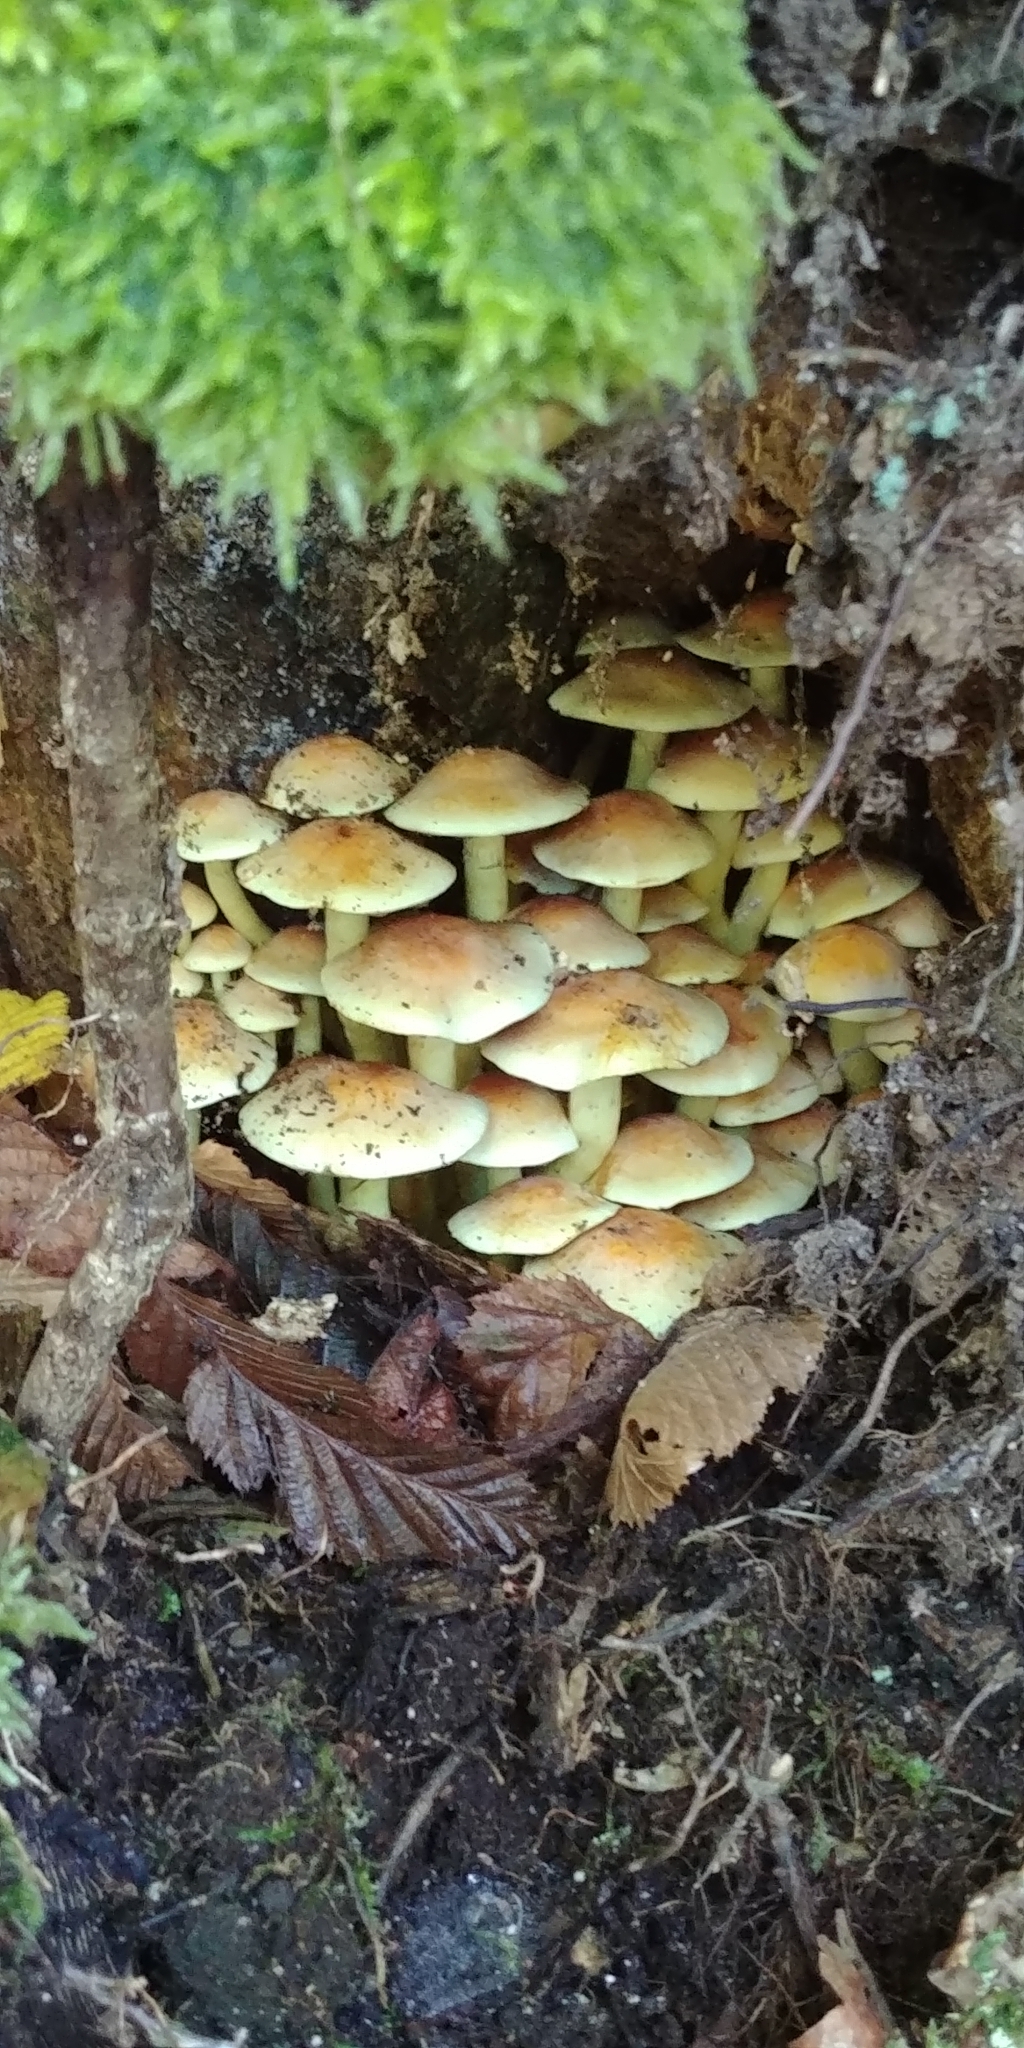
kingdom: Fungi
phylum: Basidiomycota
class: Agaricomycetes
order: Agaricales
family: Strophariaceae
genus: Hypholoma
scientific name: Hypholoma fasciculare
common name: Sulphur tuft
